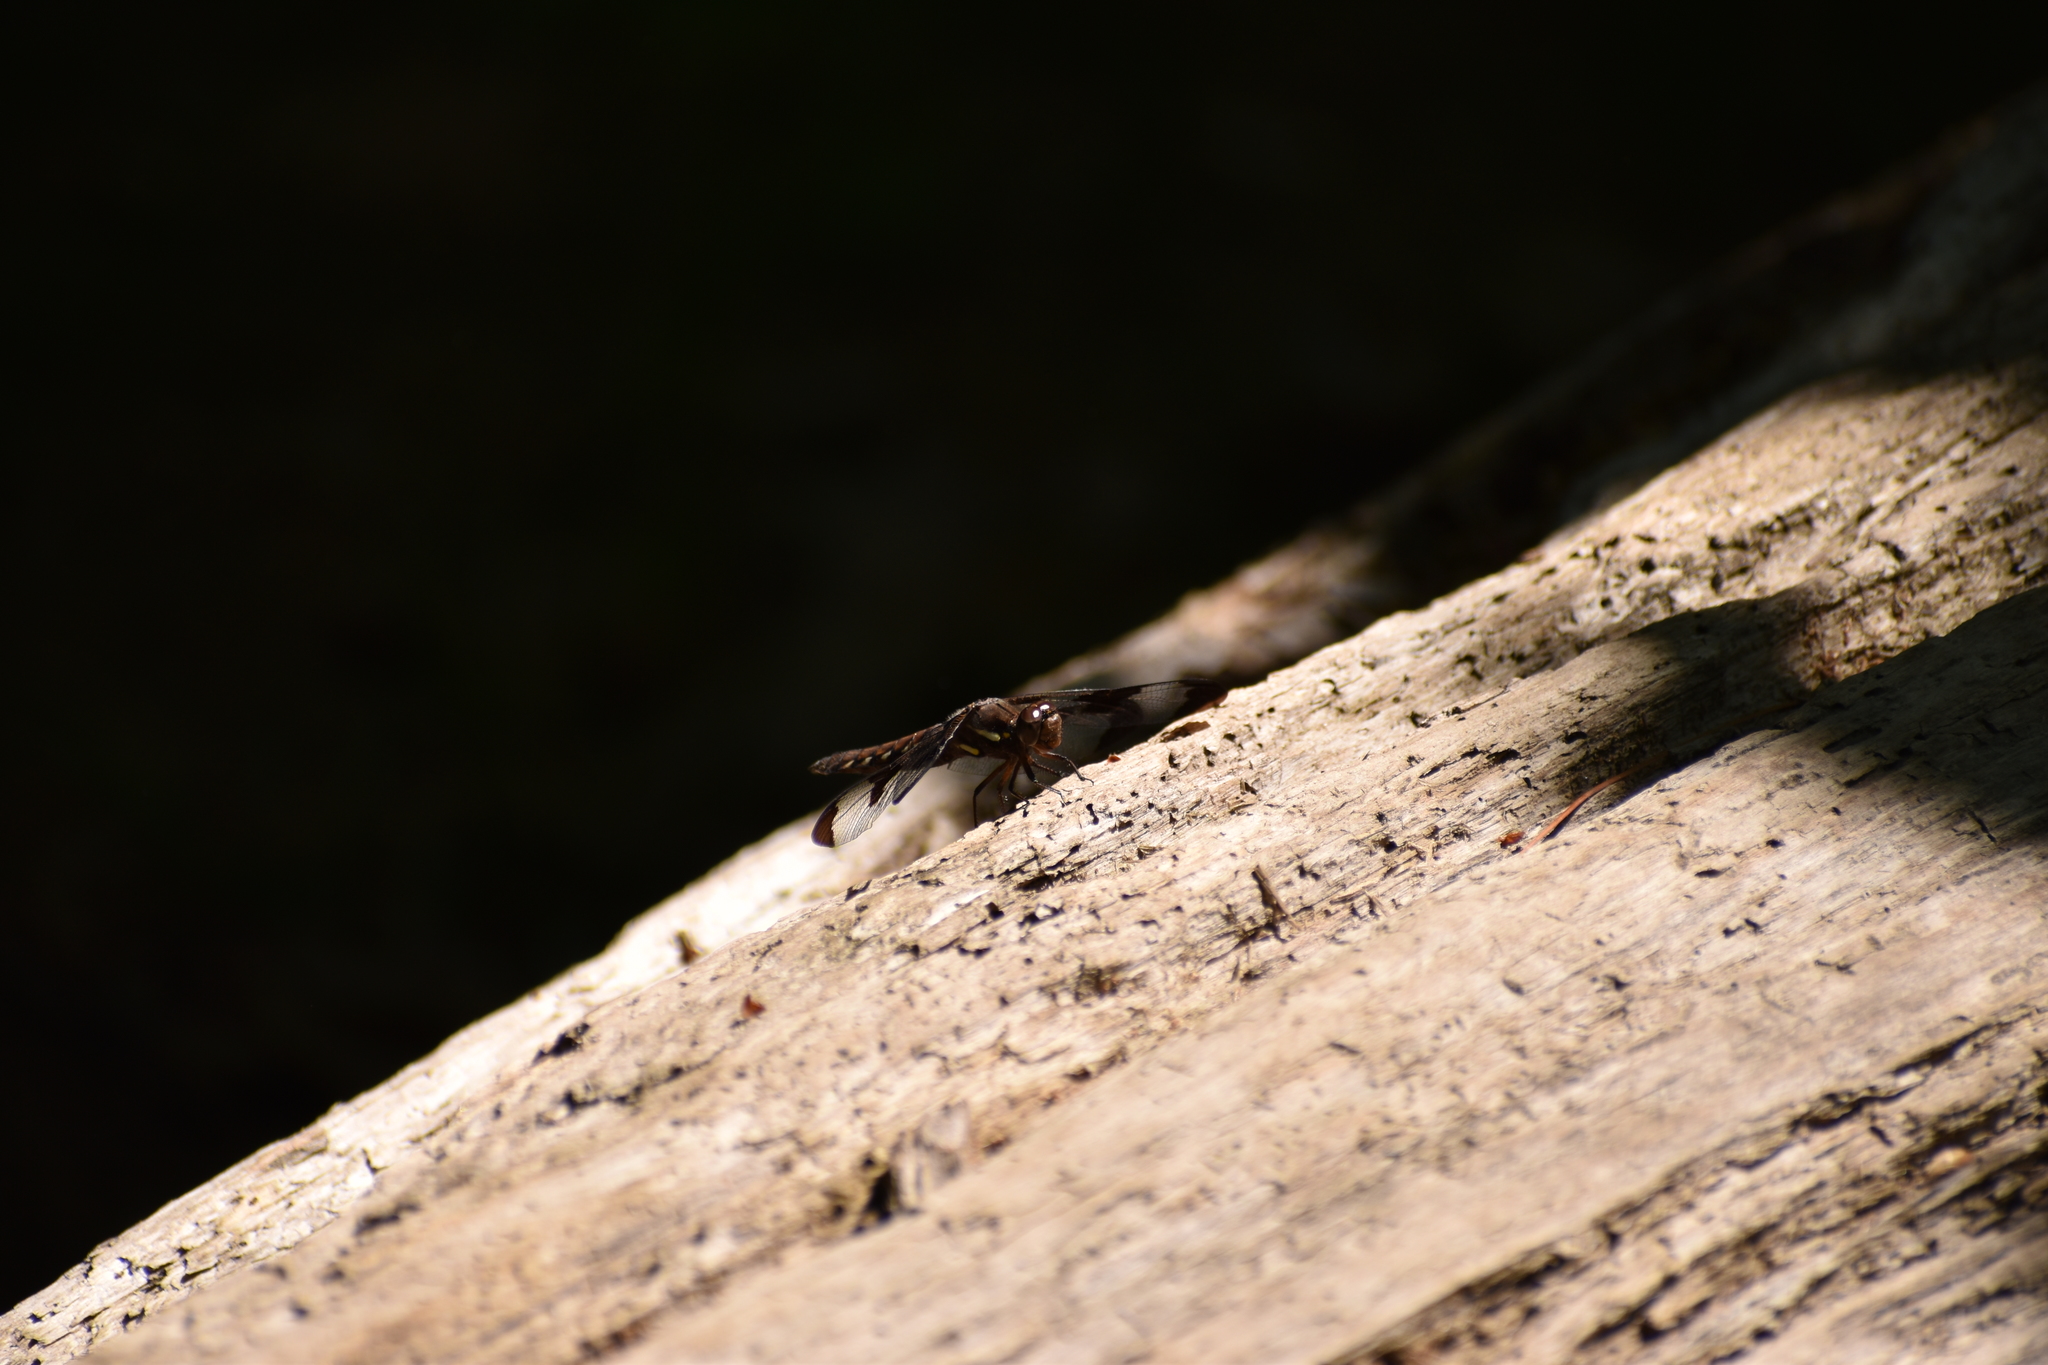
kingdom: Animalia
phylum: Arthropoda
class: Insecta
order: Odonata
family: Libellulidae
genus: Plathemis
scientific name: Plathemis lydia
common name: Common whitetail
